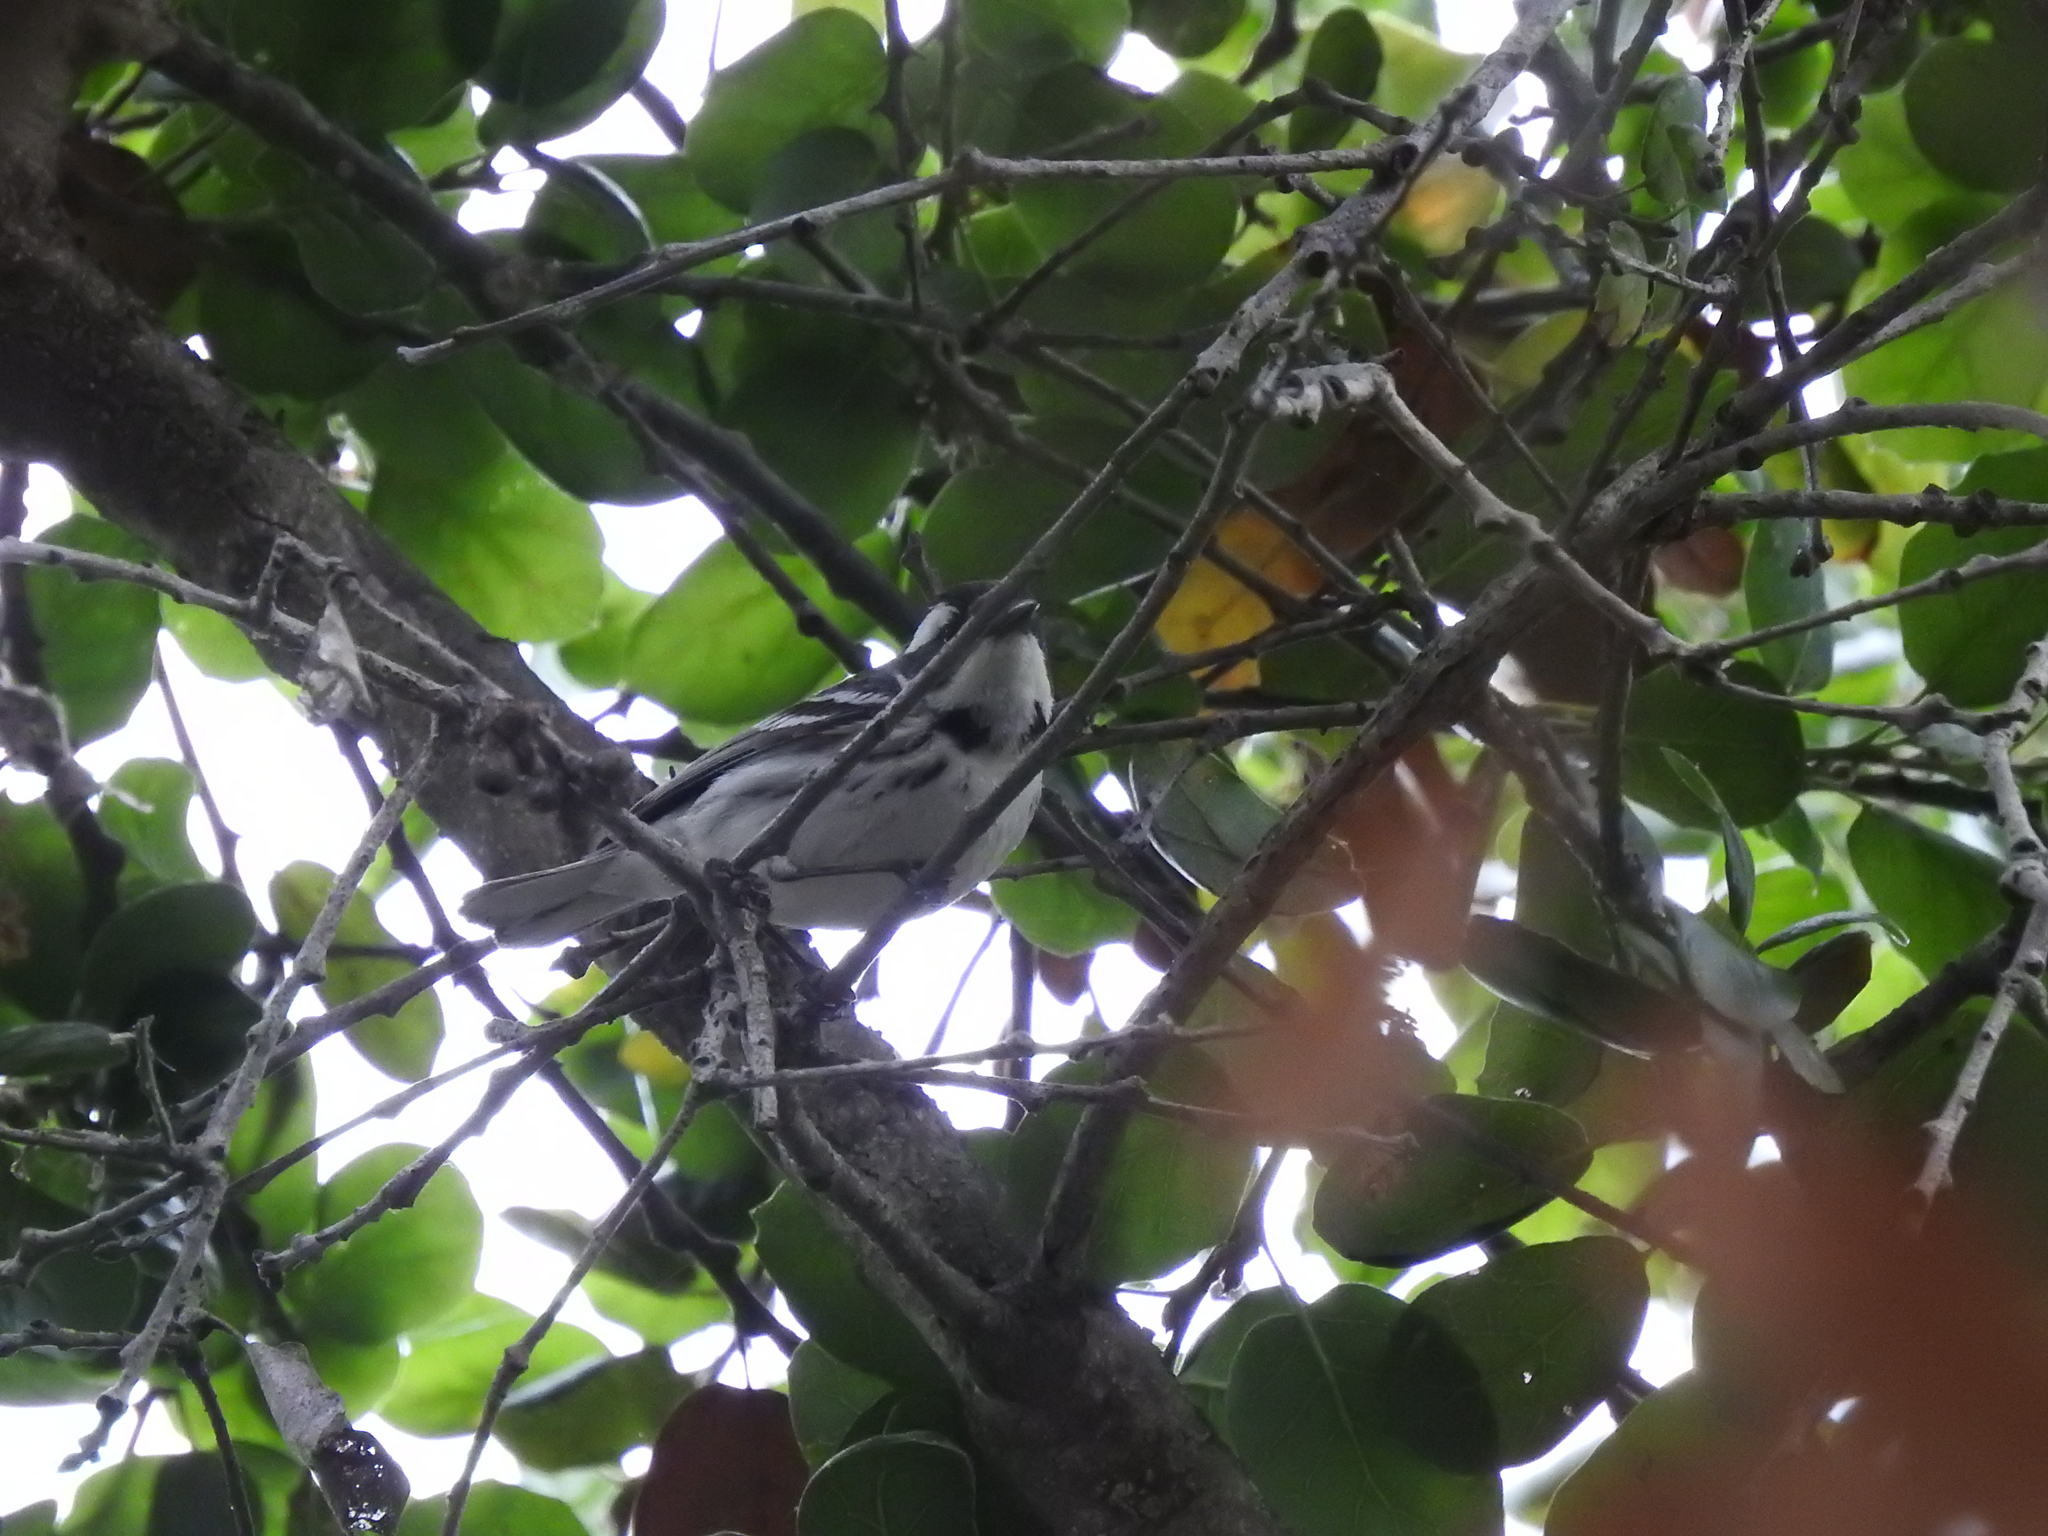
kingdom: Animalia
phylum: Chordata
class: Aves
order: Passeriformes
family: Parulidae
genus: Setophaga
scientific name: Setophaga nigrescens
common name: Black-throated gray warbler
